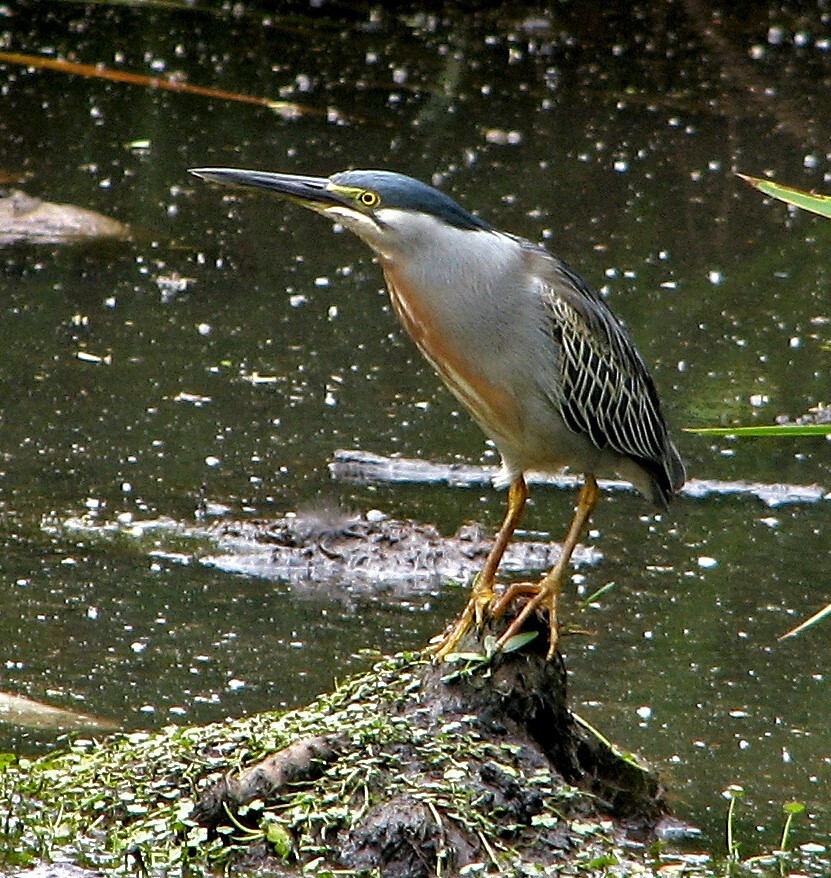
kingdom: Animalia
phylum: Chordata
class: Aves
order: Pelecaniformes
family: Ardeidae
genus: Butorides
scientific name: Butorides striata
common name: Striated heron
